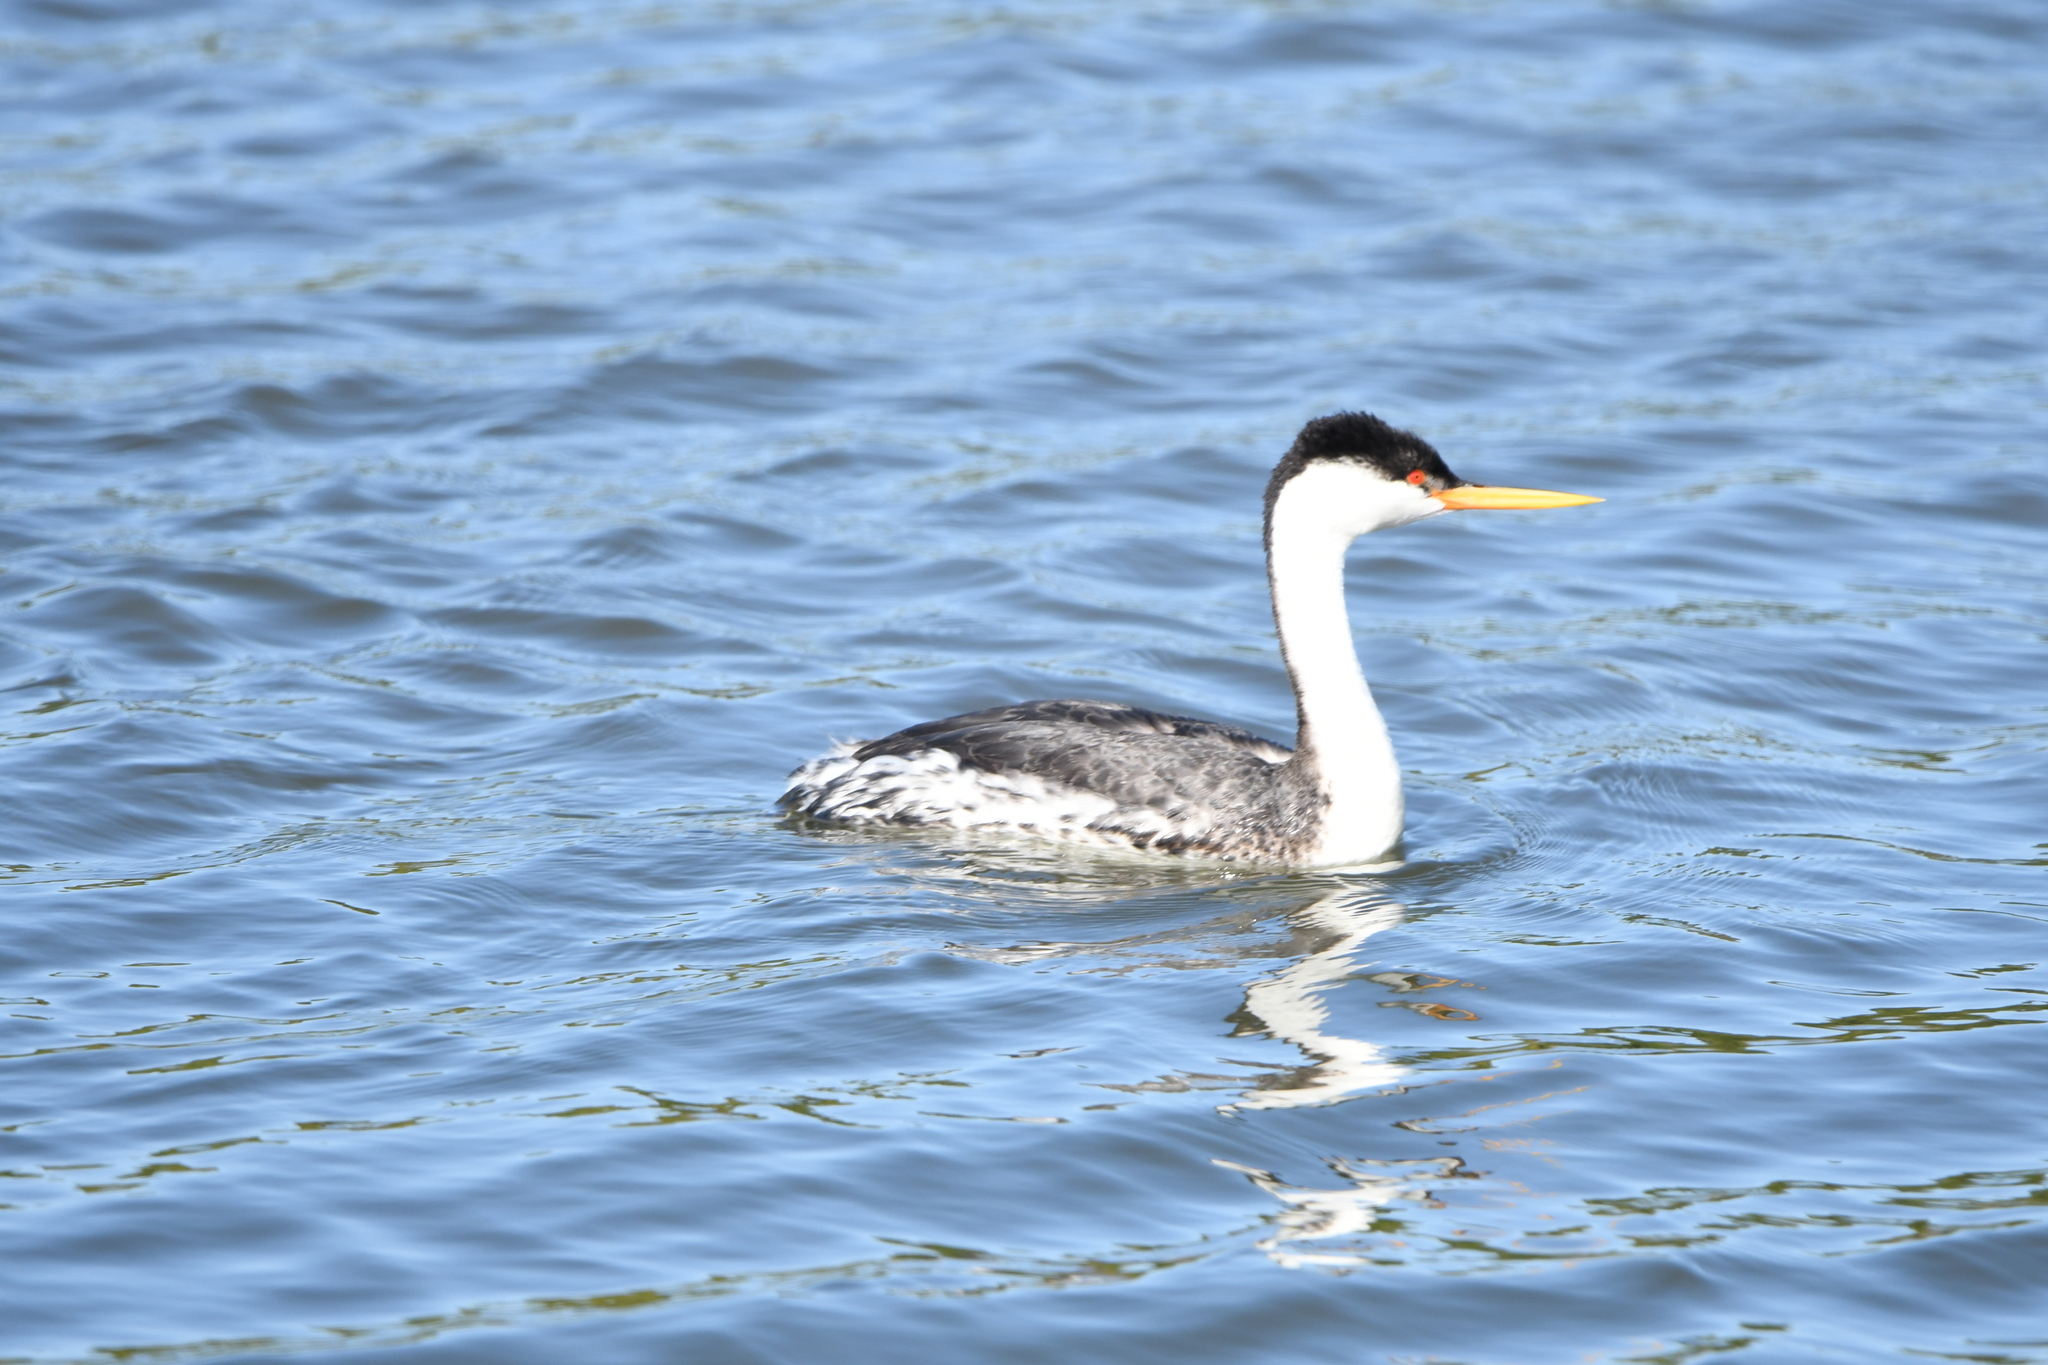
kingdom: Animalia
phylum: Chordata
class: Aves
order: Podicipediformes
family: Podicipedidae
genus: Aechmophorus
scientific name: Aechmophorus
